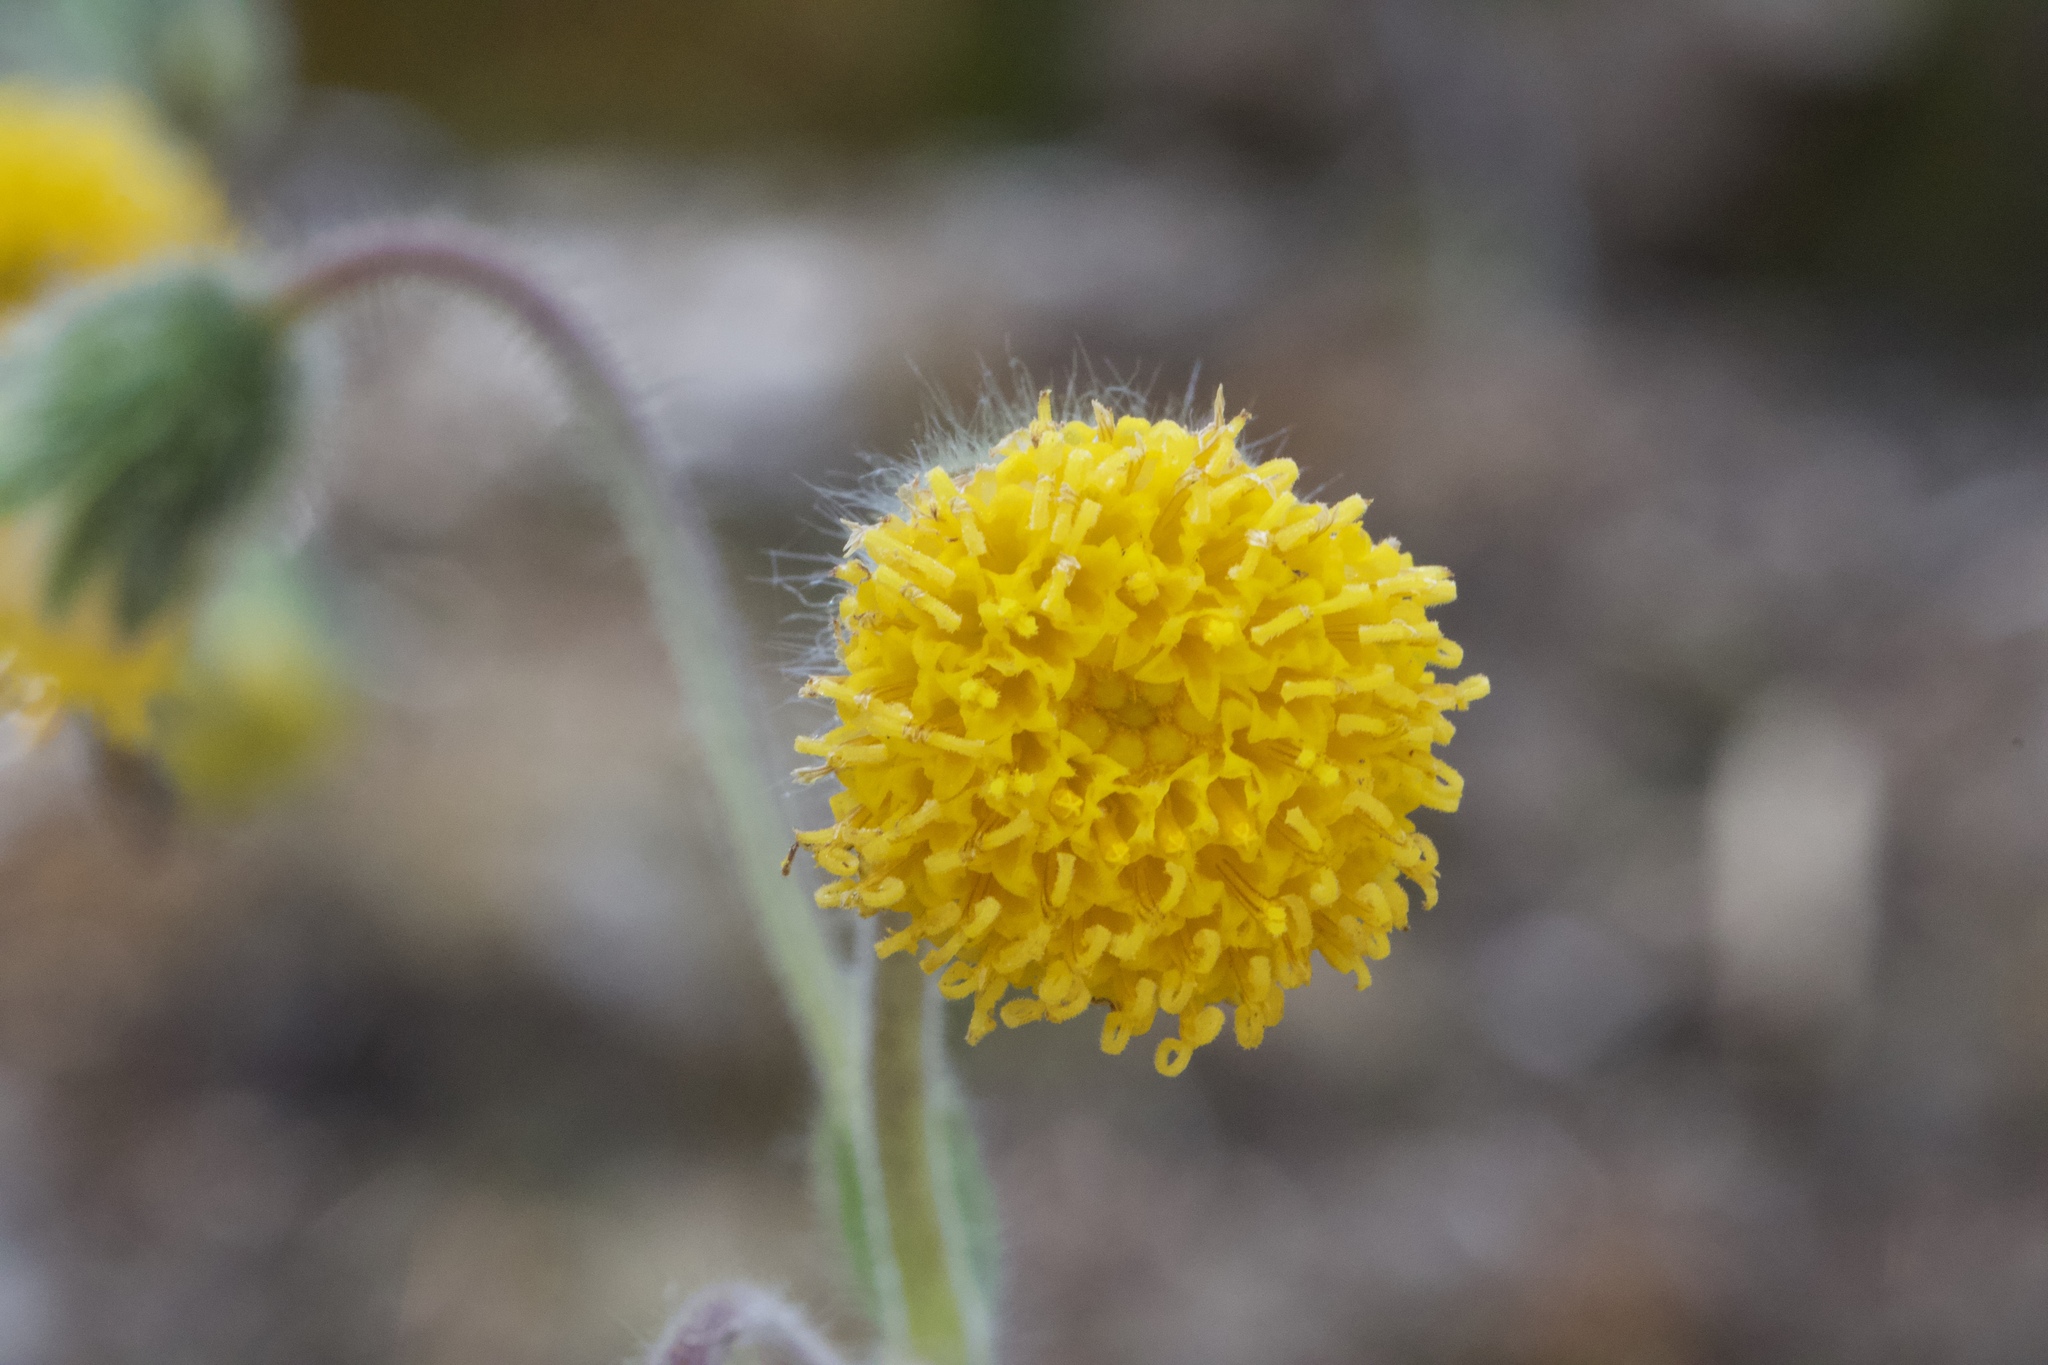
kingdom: Plantae
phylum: Tracheophyta
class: Magnoliopsida
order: Asterales
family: Asteraceae
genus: Arnica
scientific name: Arnica discoidea
